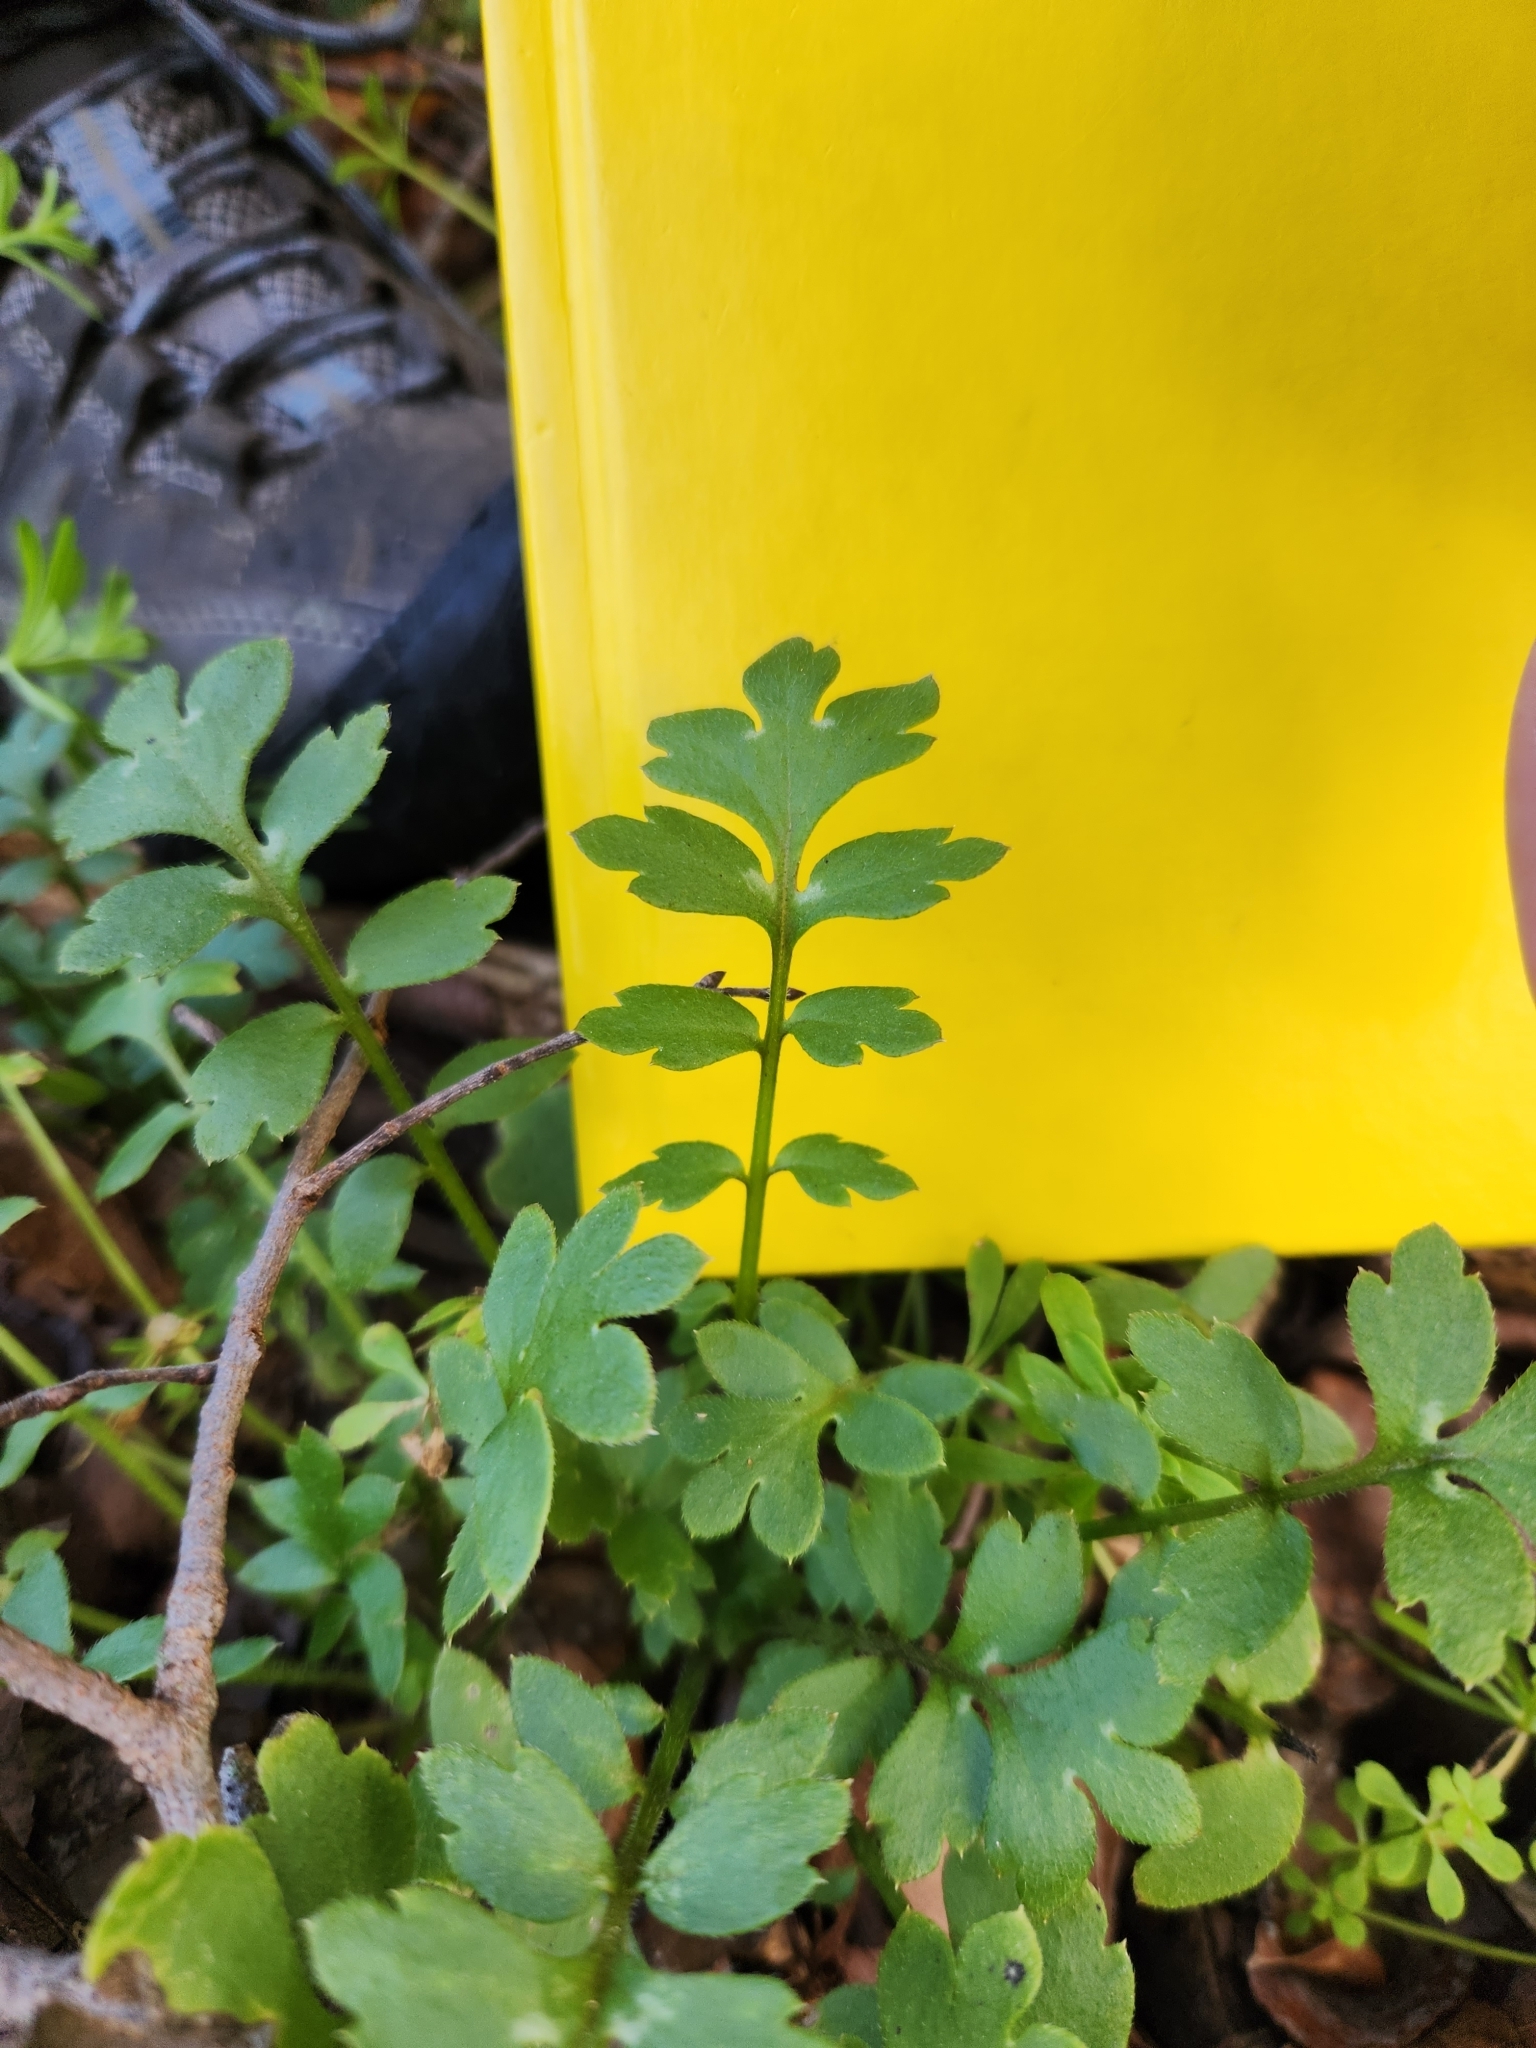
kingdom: Plantae
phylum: Tracheophyta
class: Magnoliopsida
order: Boraginales
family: Hydrophyllaceae
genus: Nemophila
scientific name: Nemophila phacelioides
